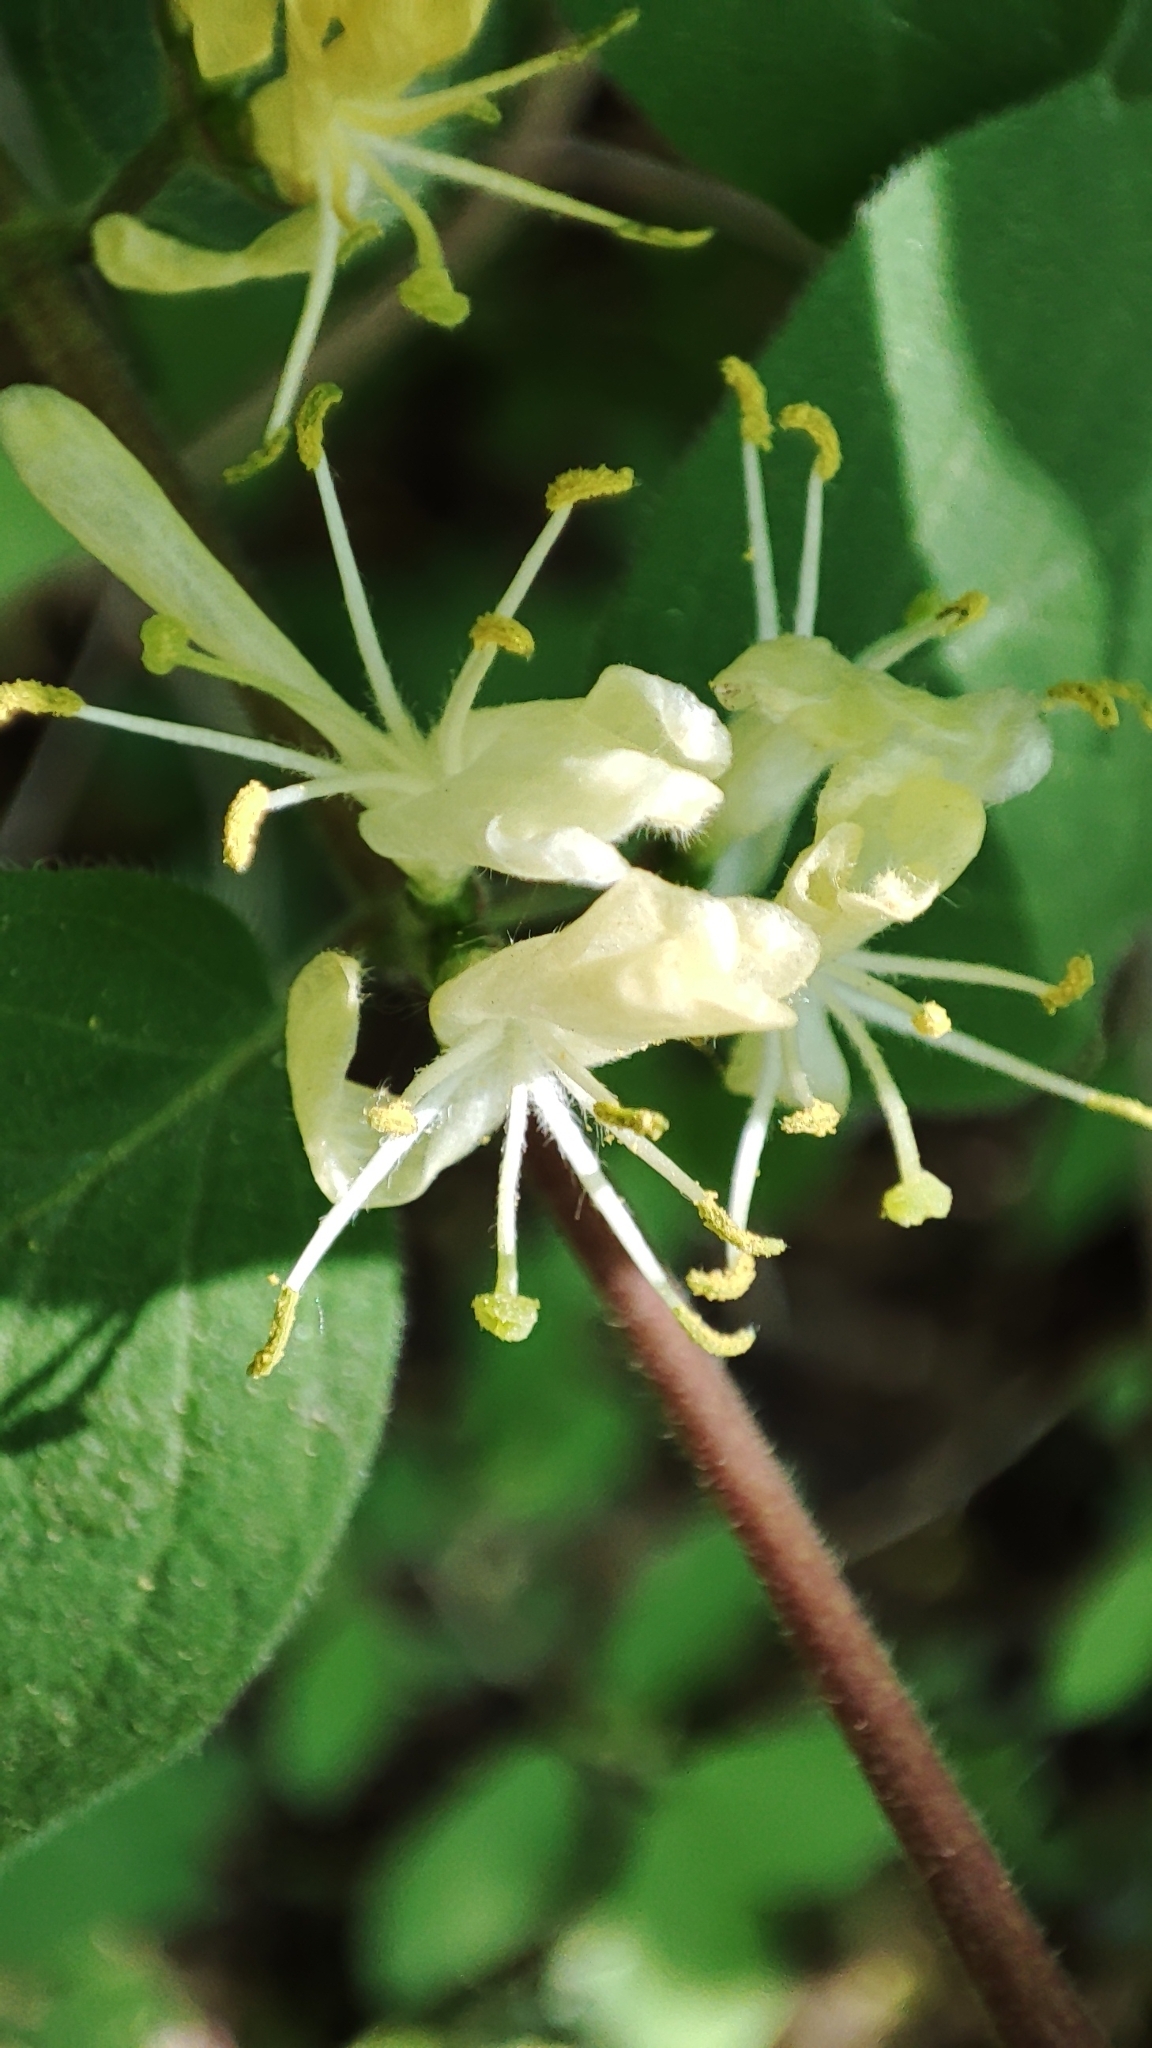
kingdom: Plantae
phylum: Tracheophyta
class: Magnoliopsida
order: Dipsacales
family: Caprifoliaceae
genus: Lonicera
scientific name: Lonicera xylosteum
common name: Fly honeysuckle
